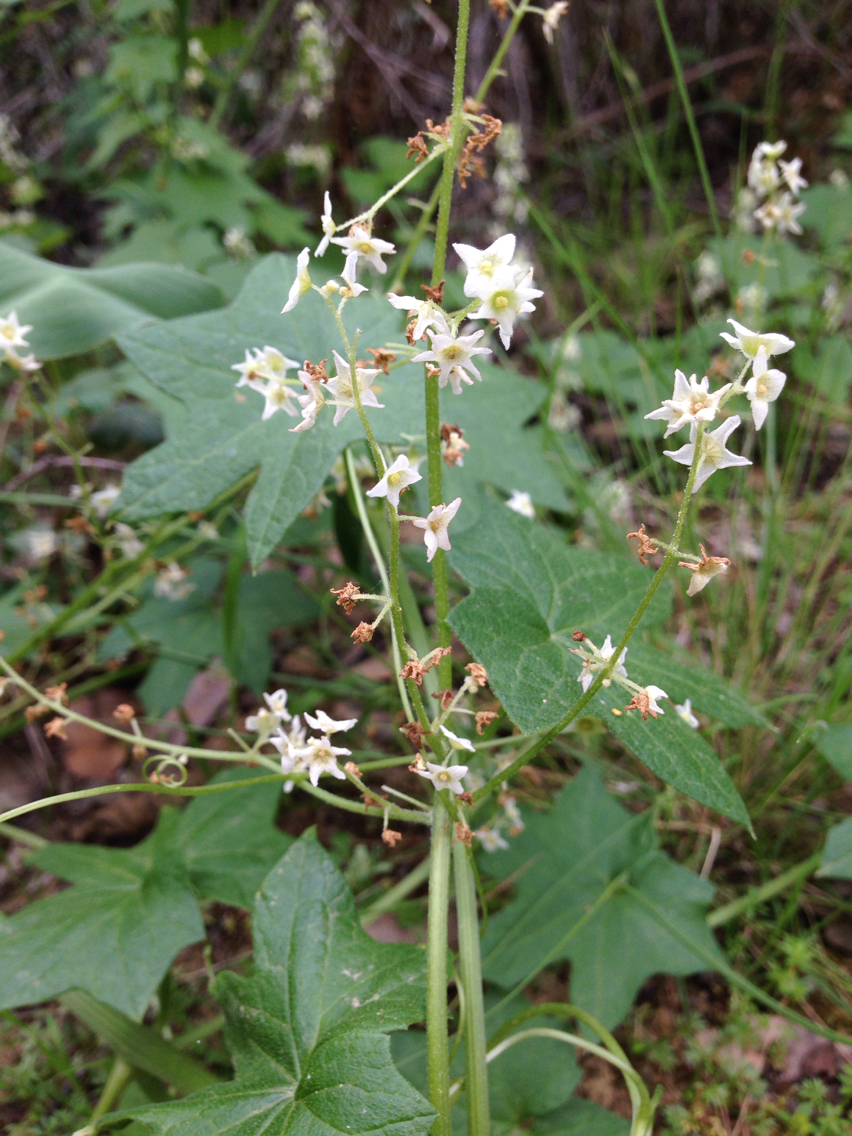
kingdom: Plantae
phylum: Tracheophyta
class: Magnoliopsida
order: Cucurbitales
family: Cucurbitaceae
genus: Marah
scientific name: Marah fabacea
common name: California manroot
